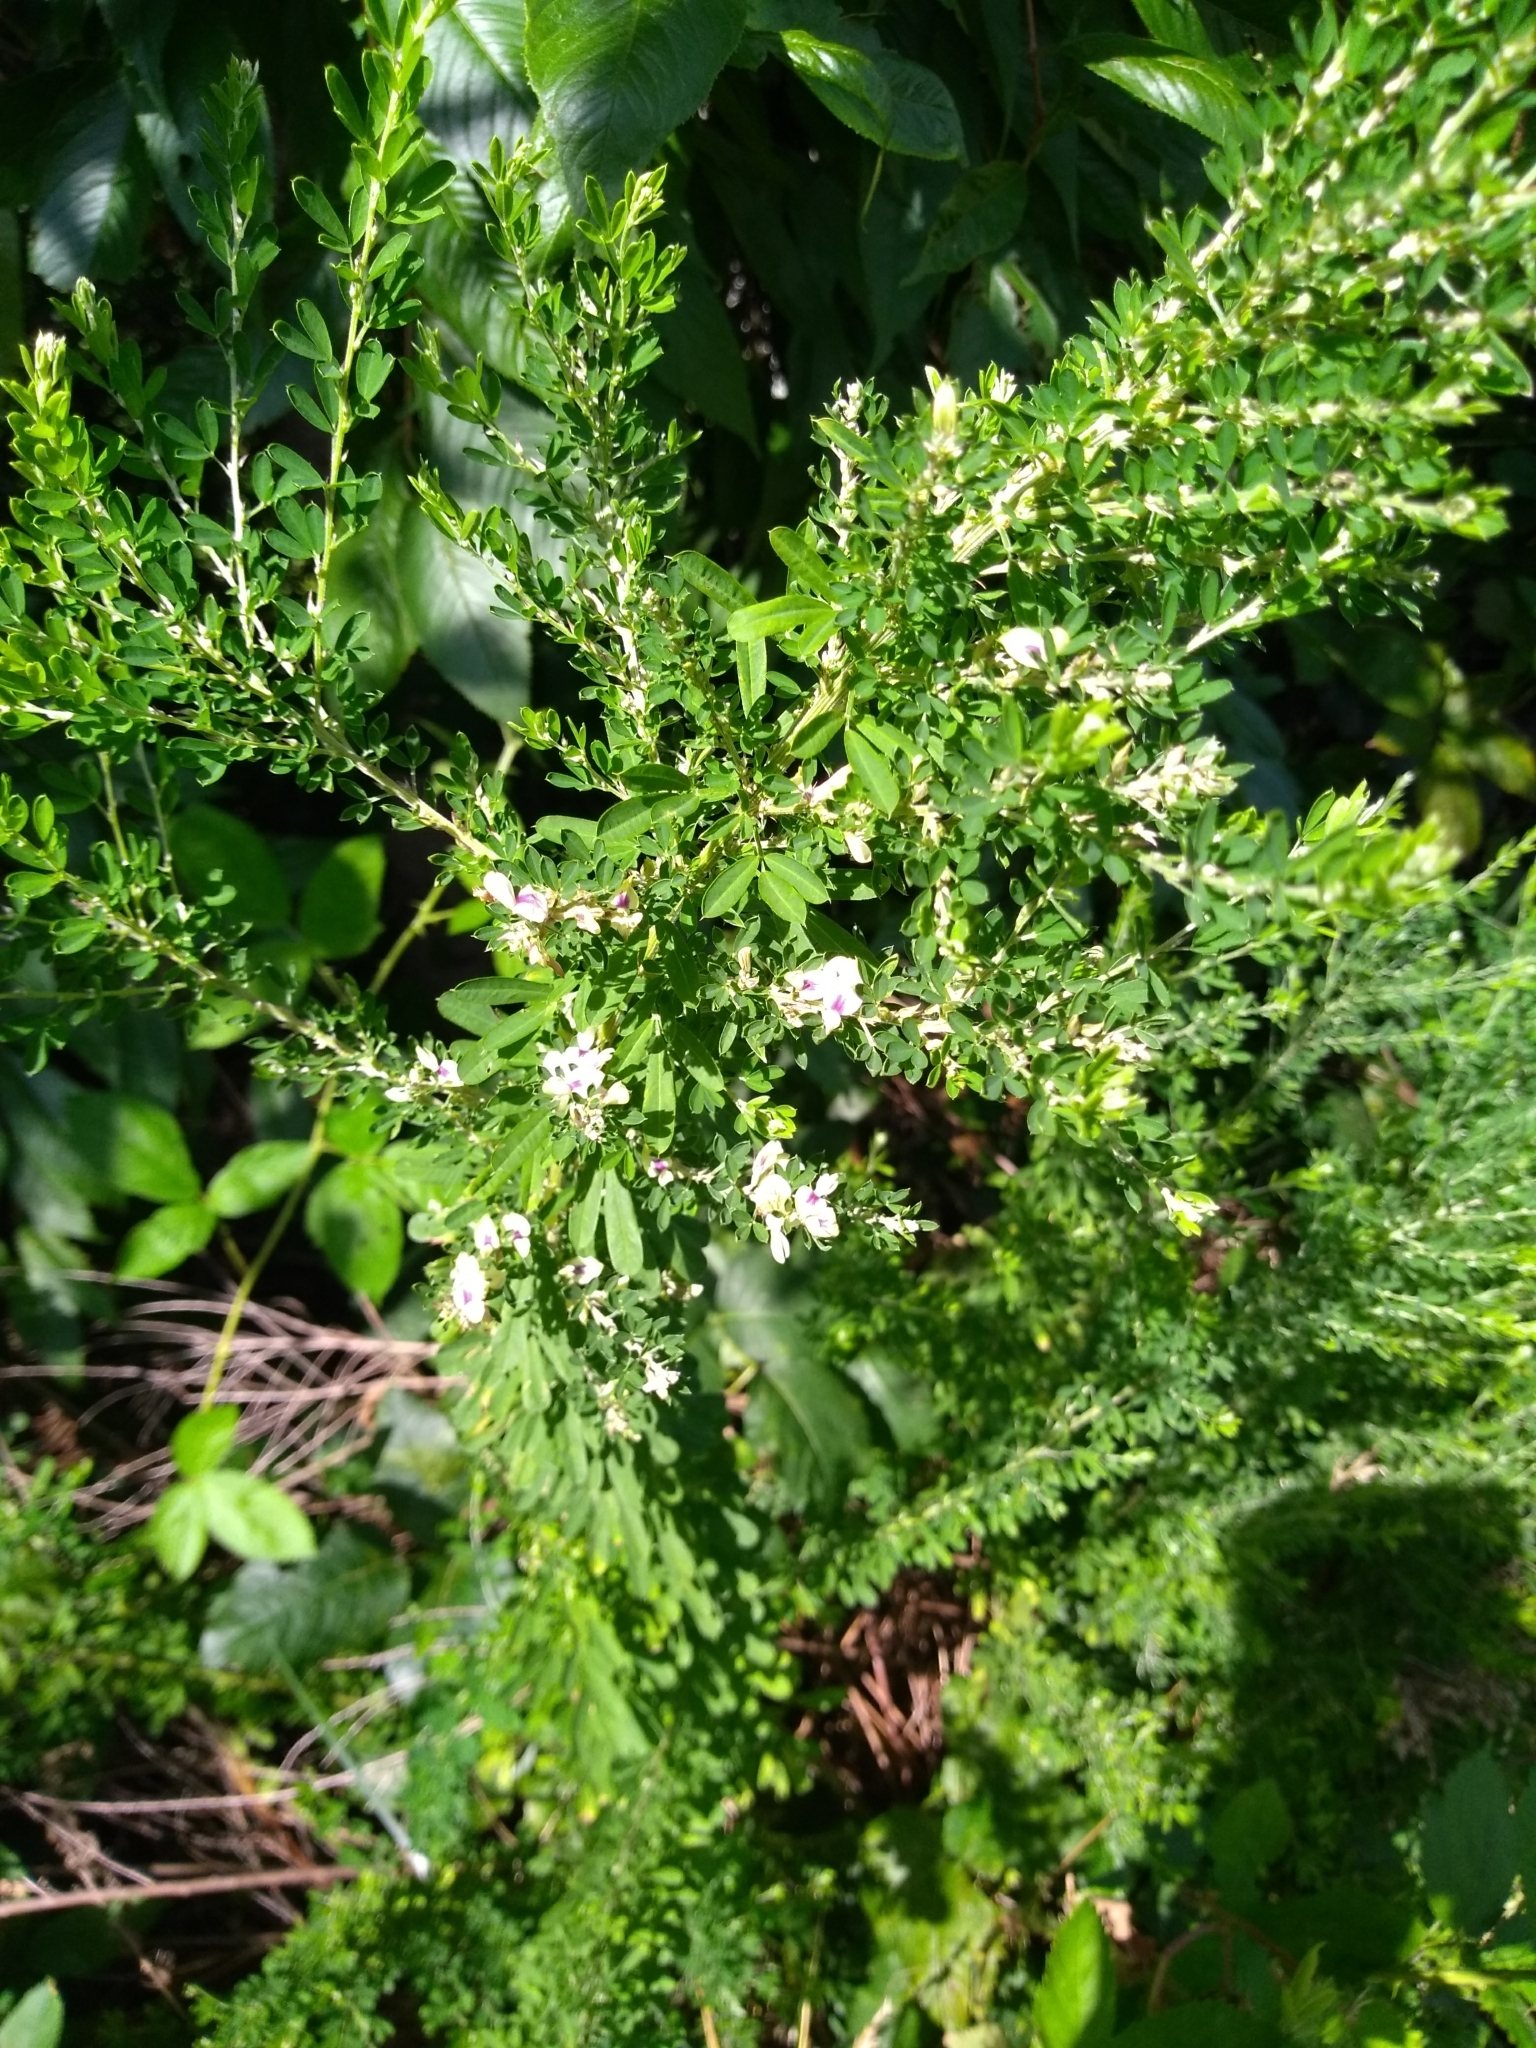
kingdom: Plantae
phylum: Tracheophyta
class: Magnoliopsida
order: Fabales
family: Fabaceae
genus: Lespedeza
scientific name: Lespedeza cuneata
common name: Chinese bush-clover
